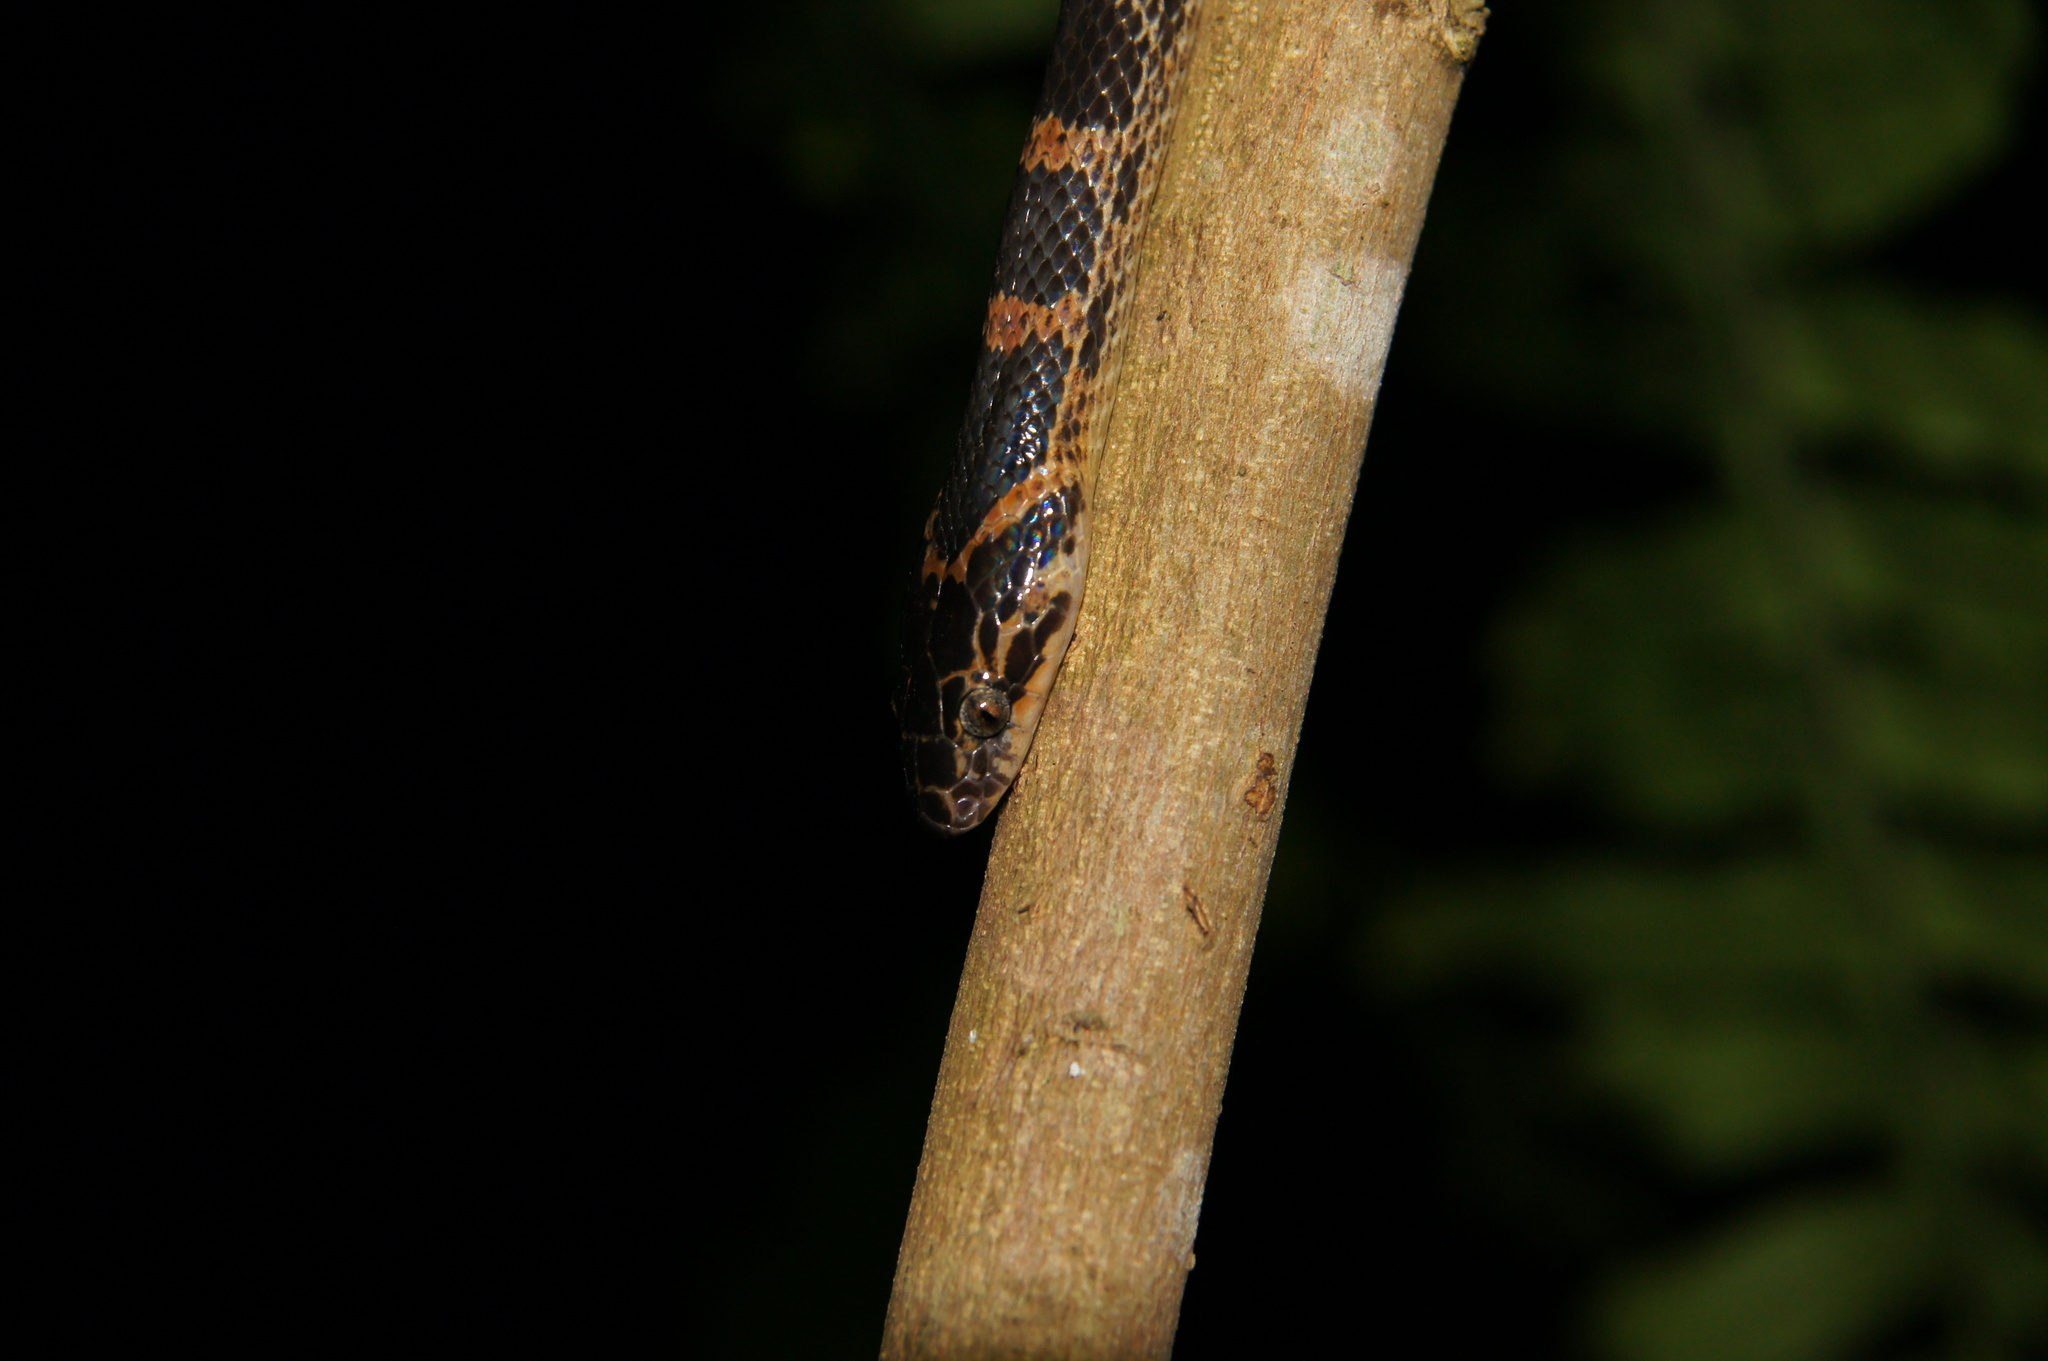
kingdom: Animalia
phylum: Chordata
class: Squamata
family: Colubridae
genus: Lycodon
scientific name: Lycodon rufozonatus
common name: Red-banded snake
